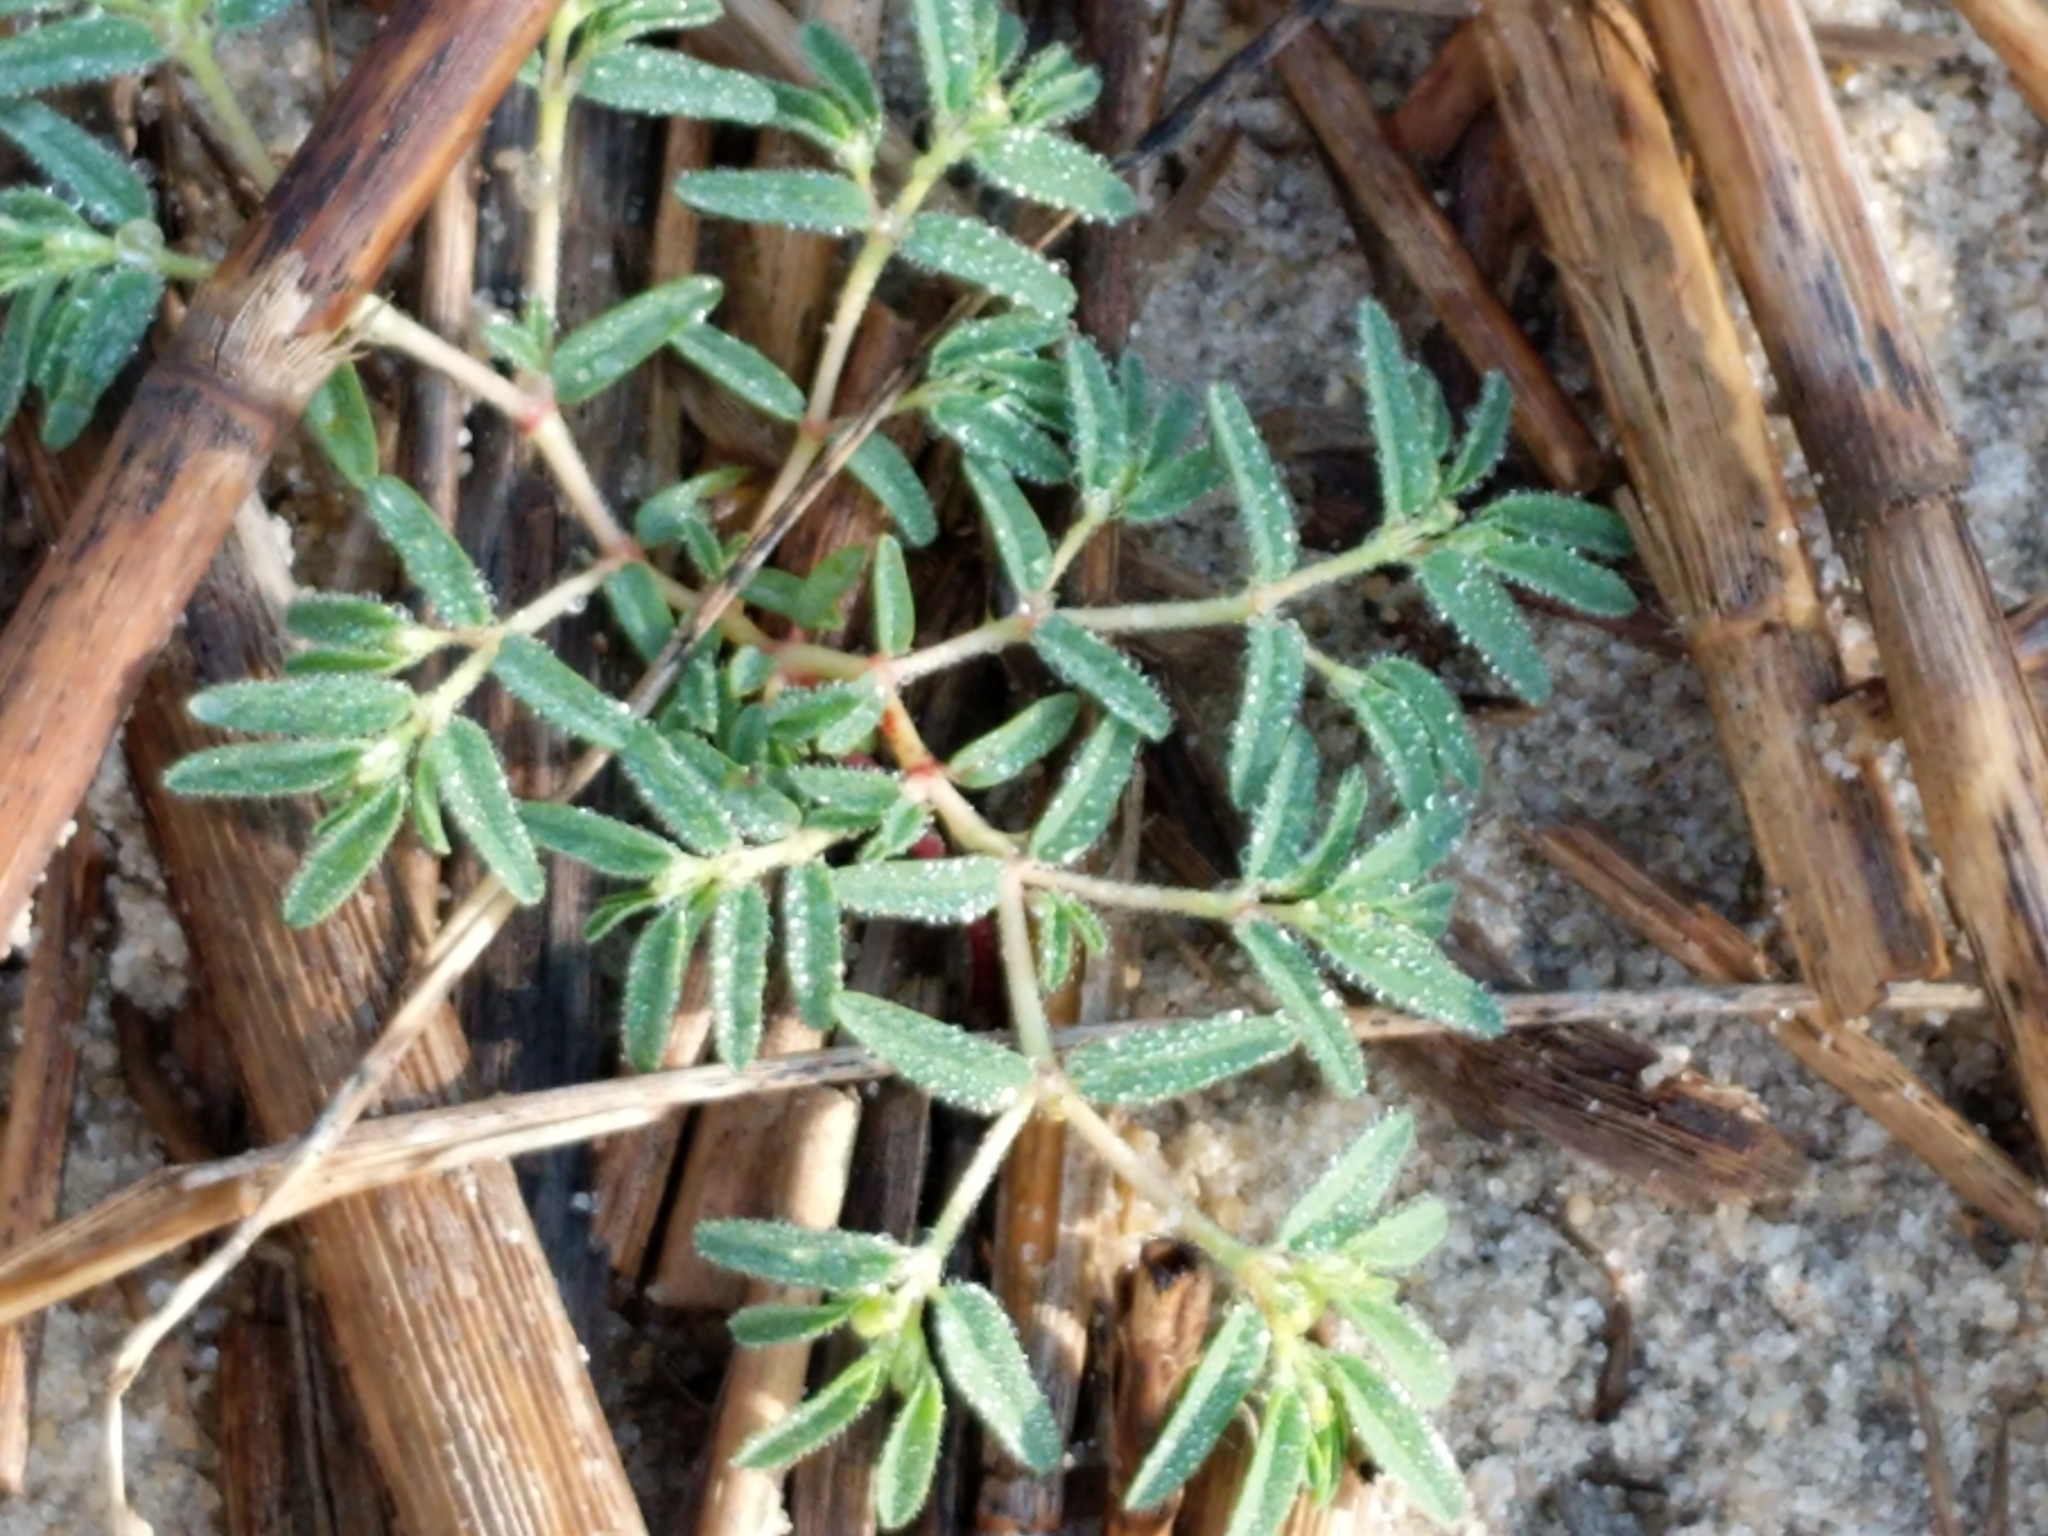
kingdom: Plantae
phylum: Tracheophyta
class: Magnoliopsida
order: Malpighiales
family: Euphorbiaceae
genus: Euphorbia
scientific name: Euphorbia polygonifolia
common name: Knotweed spurge
